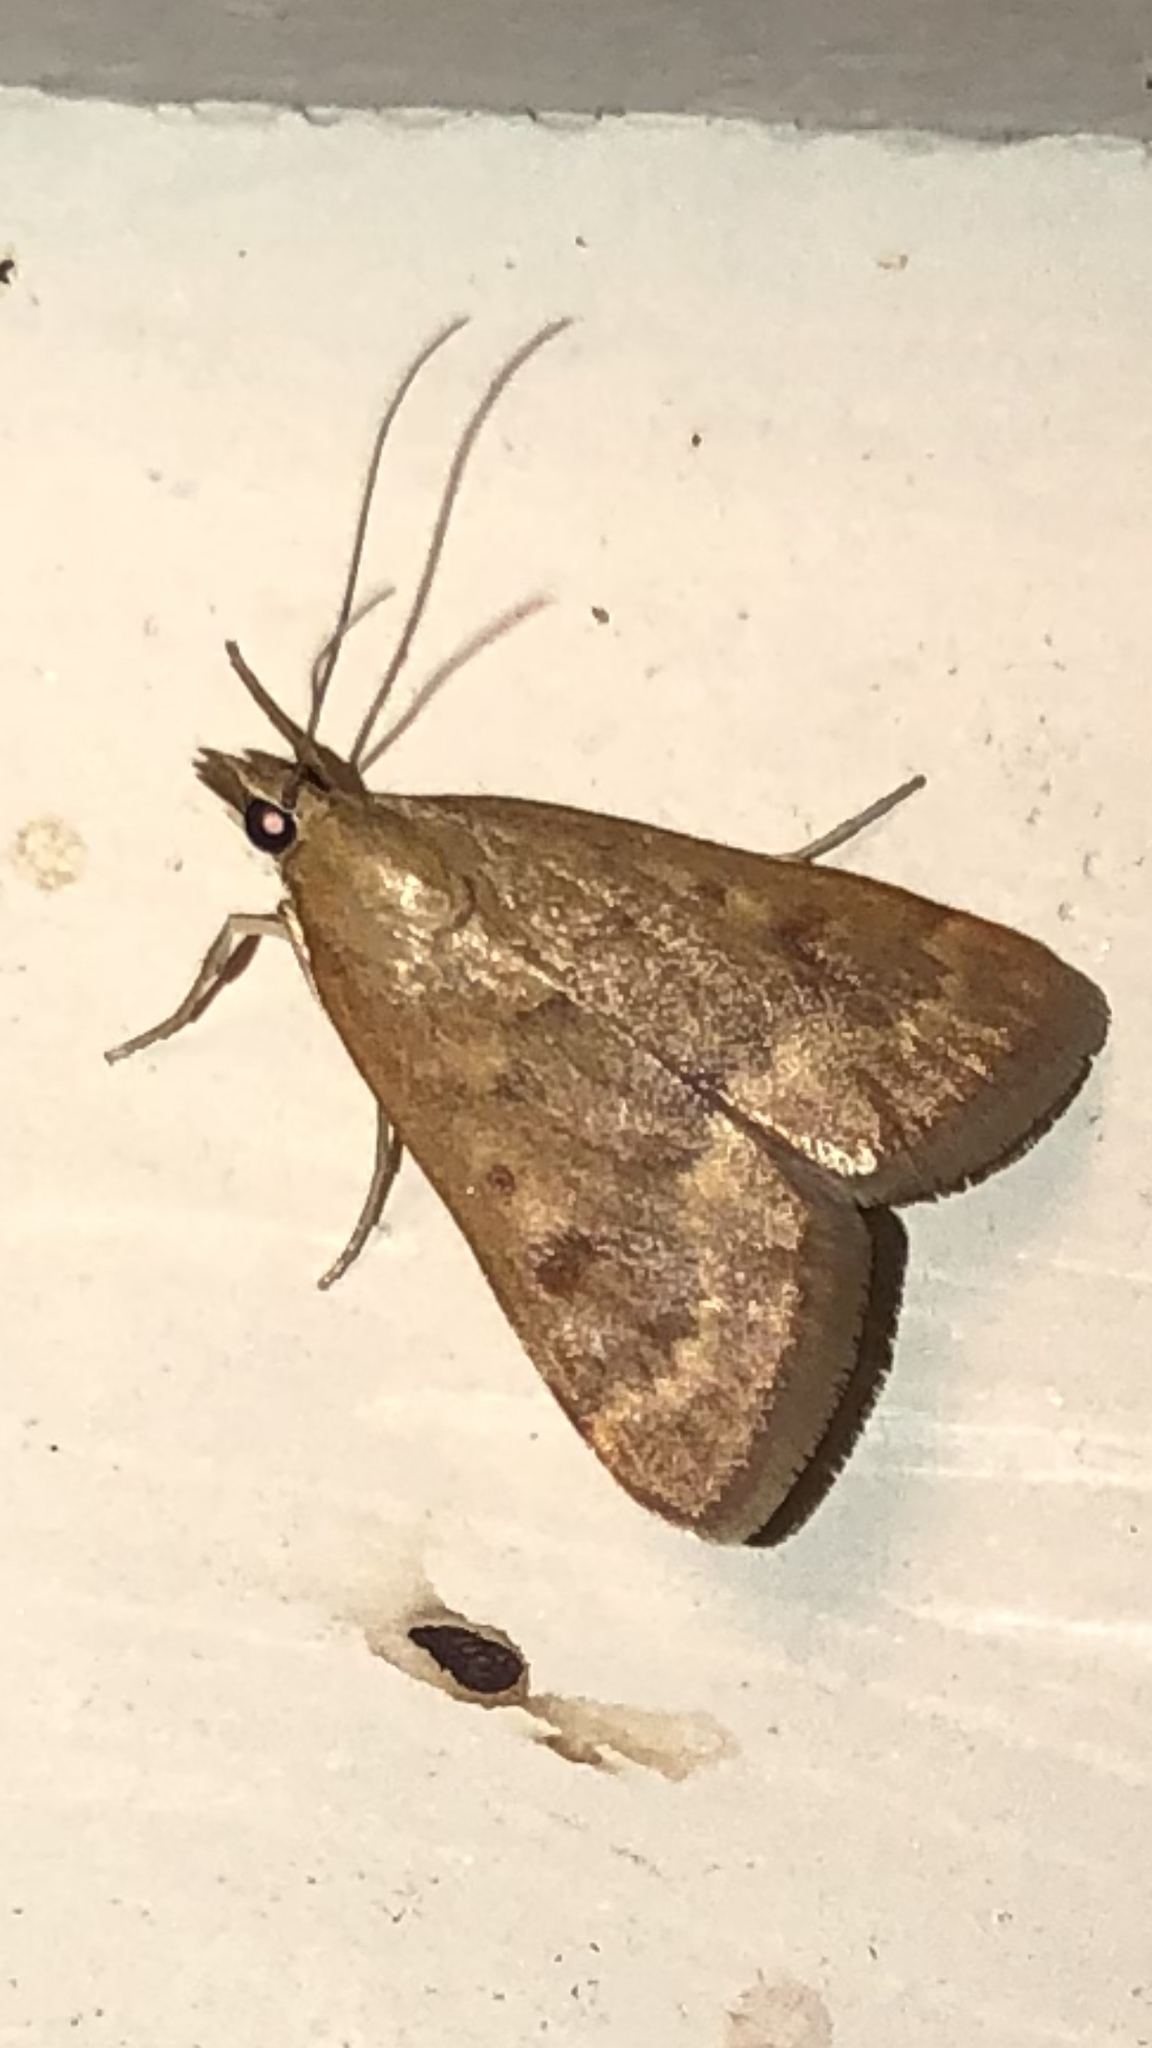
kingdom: Animalia
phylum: Arthropoda
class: Insecta
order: Lepidoptera
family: Crambidae
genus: Achyra
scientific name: Achyra rantalis
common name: Garden webworm
